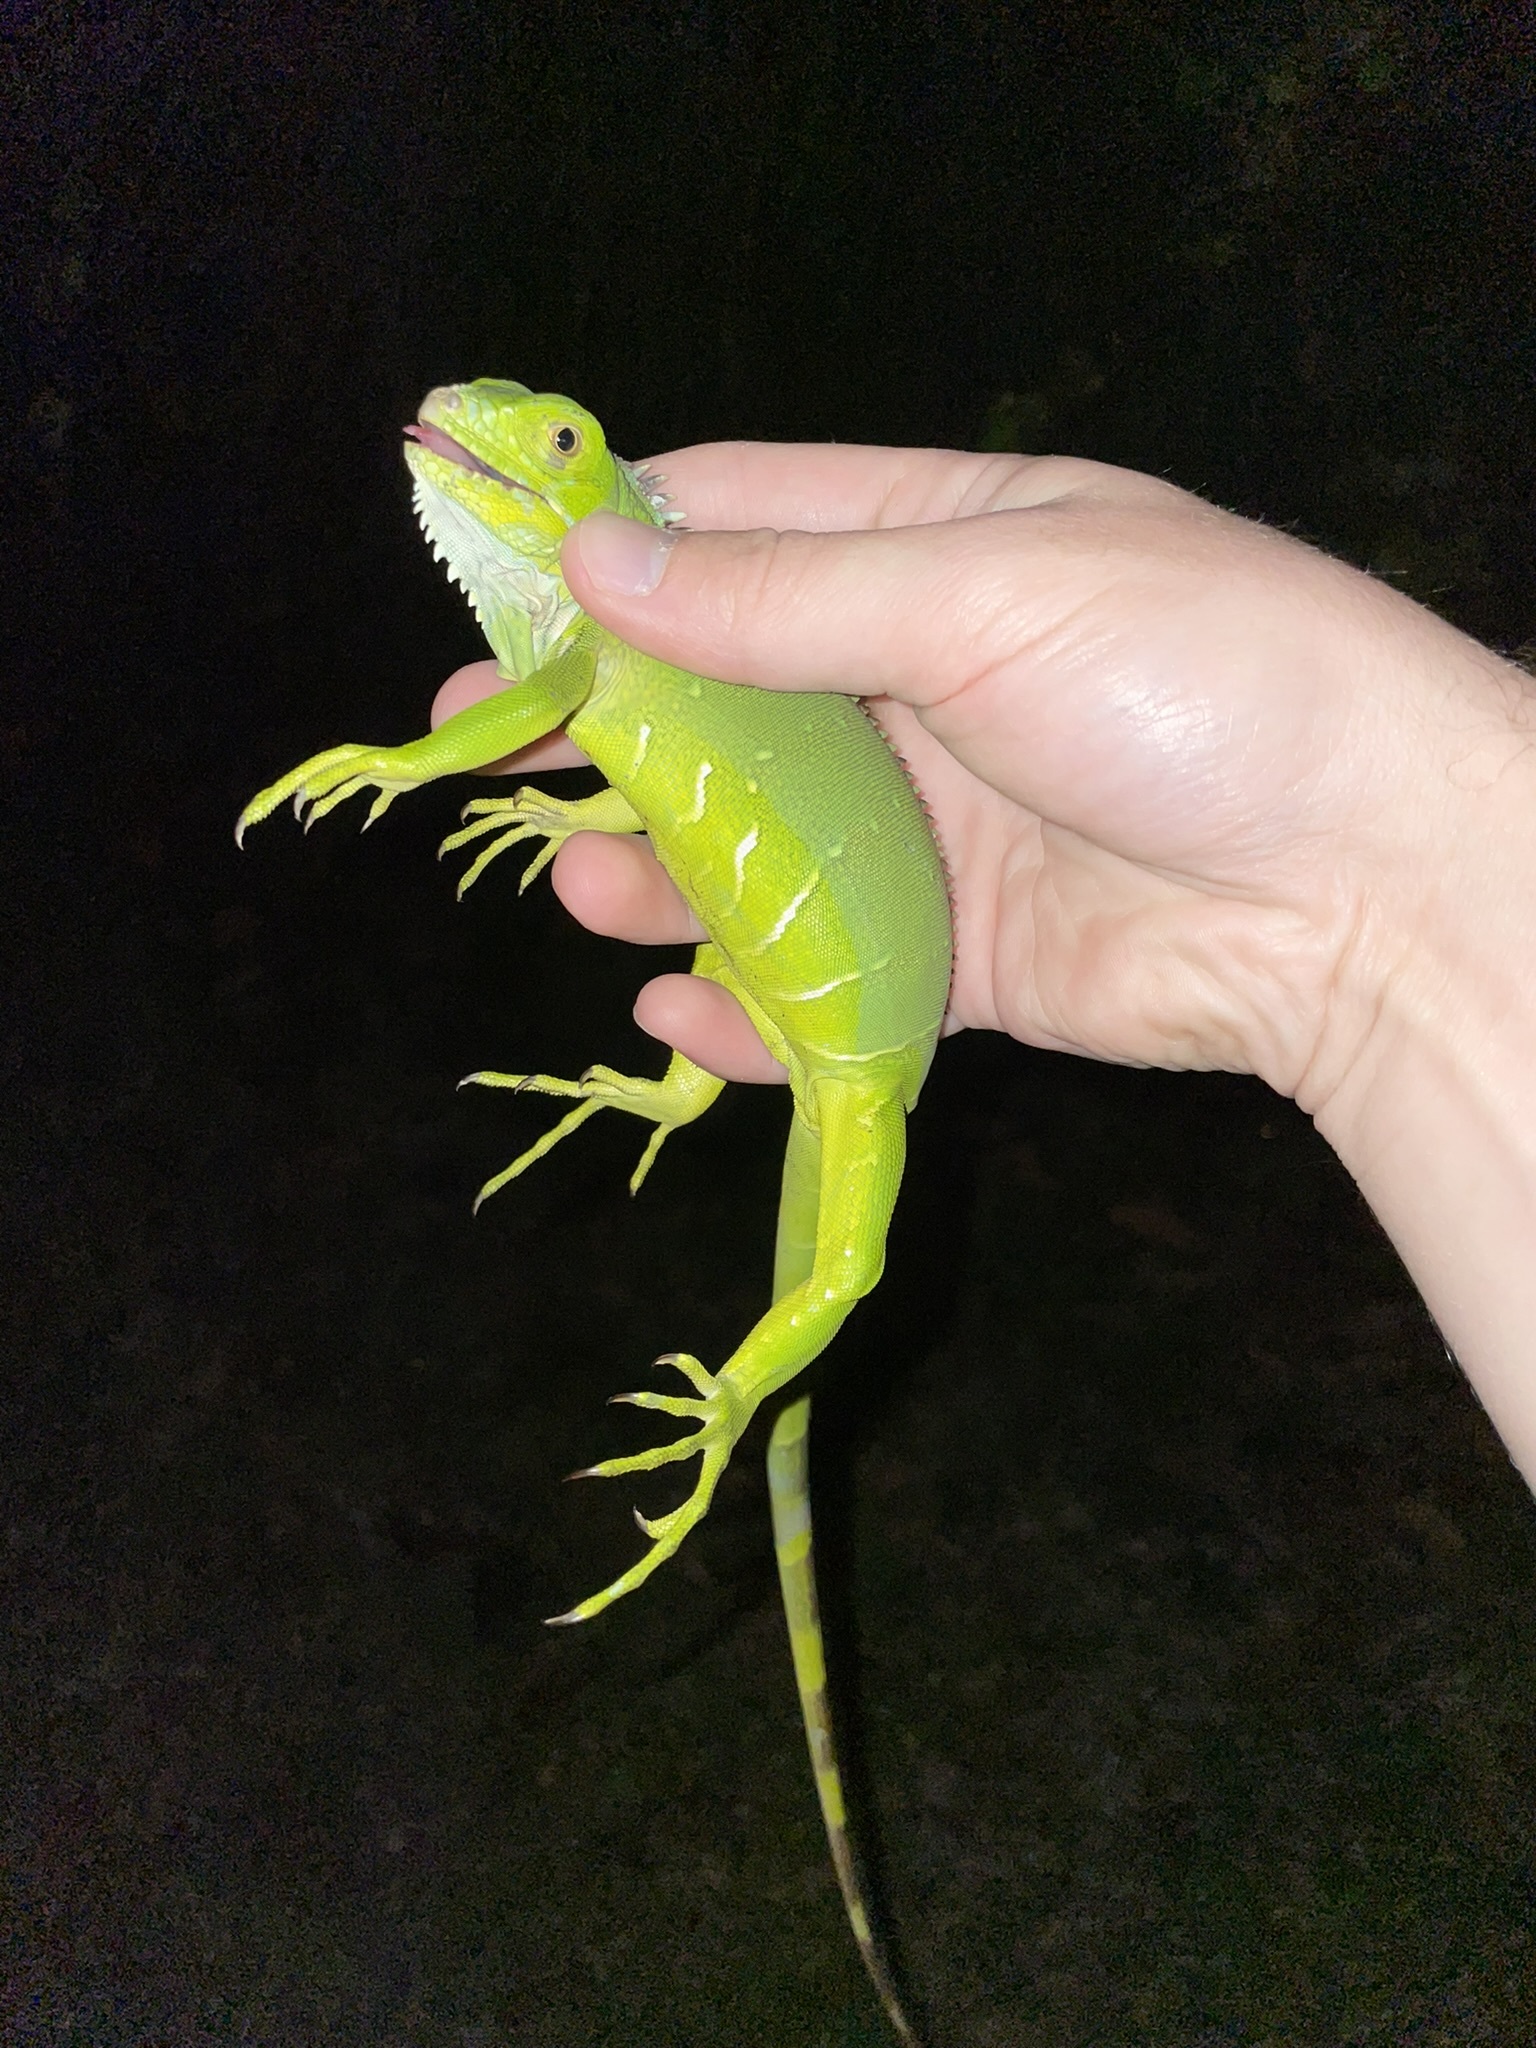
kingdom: Animalia
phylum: Chordata
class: Squamata
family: Iguanidae
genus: Iguana
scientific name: Iguana iguana
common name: Green iguana
